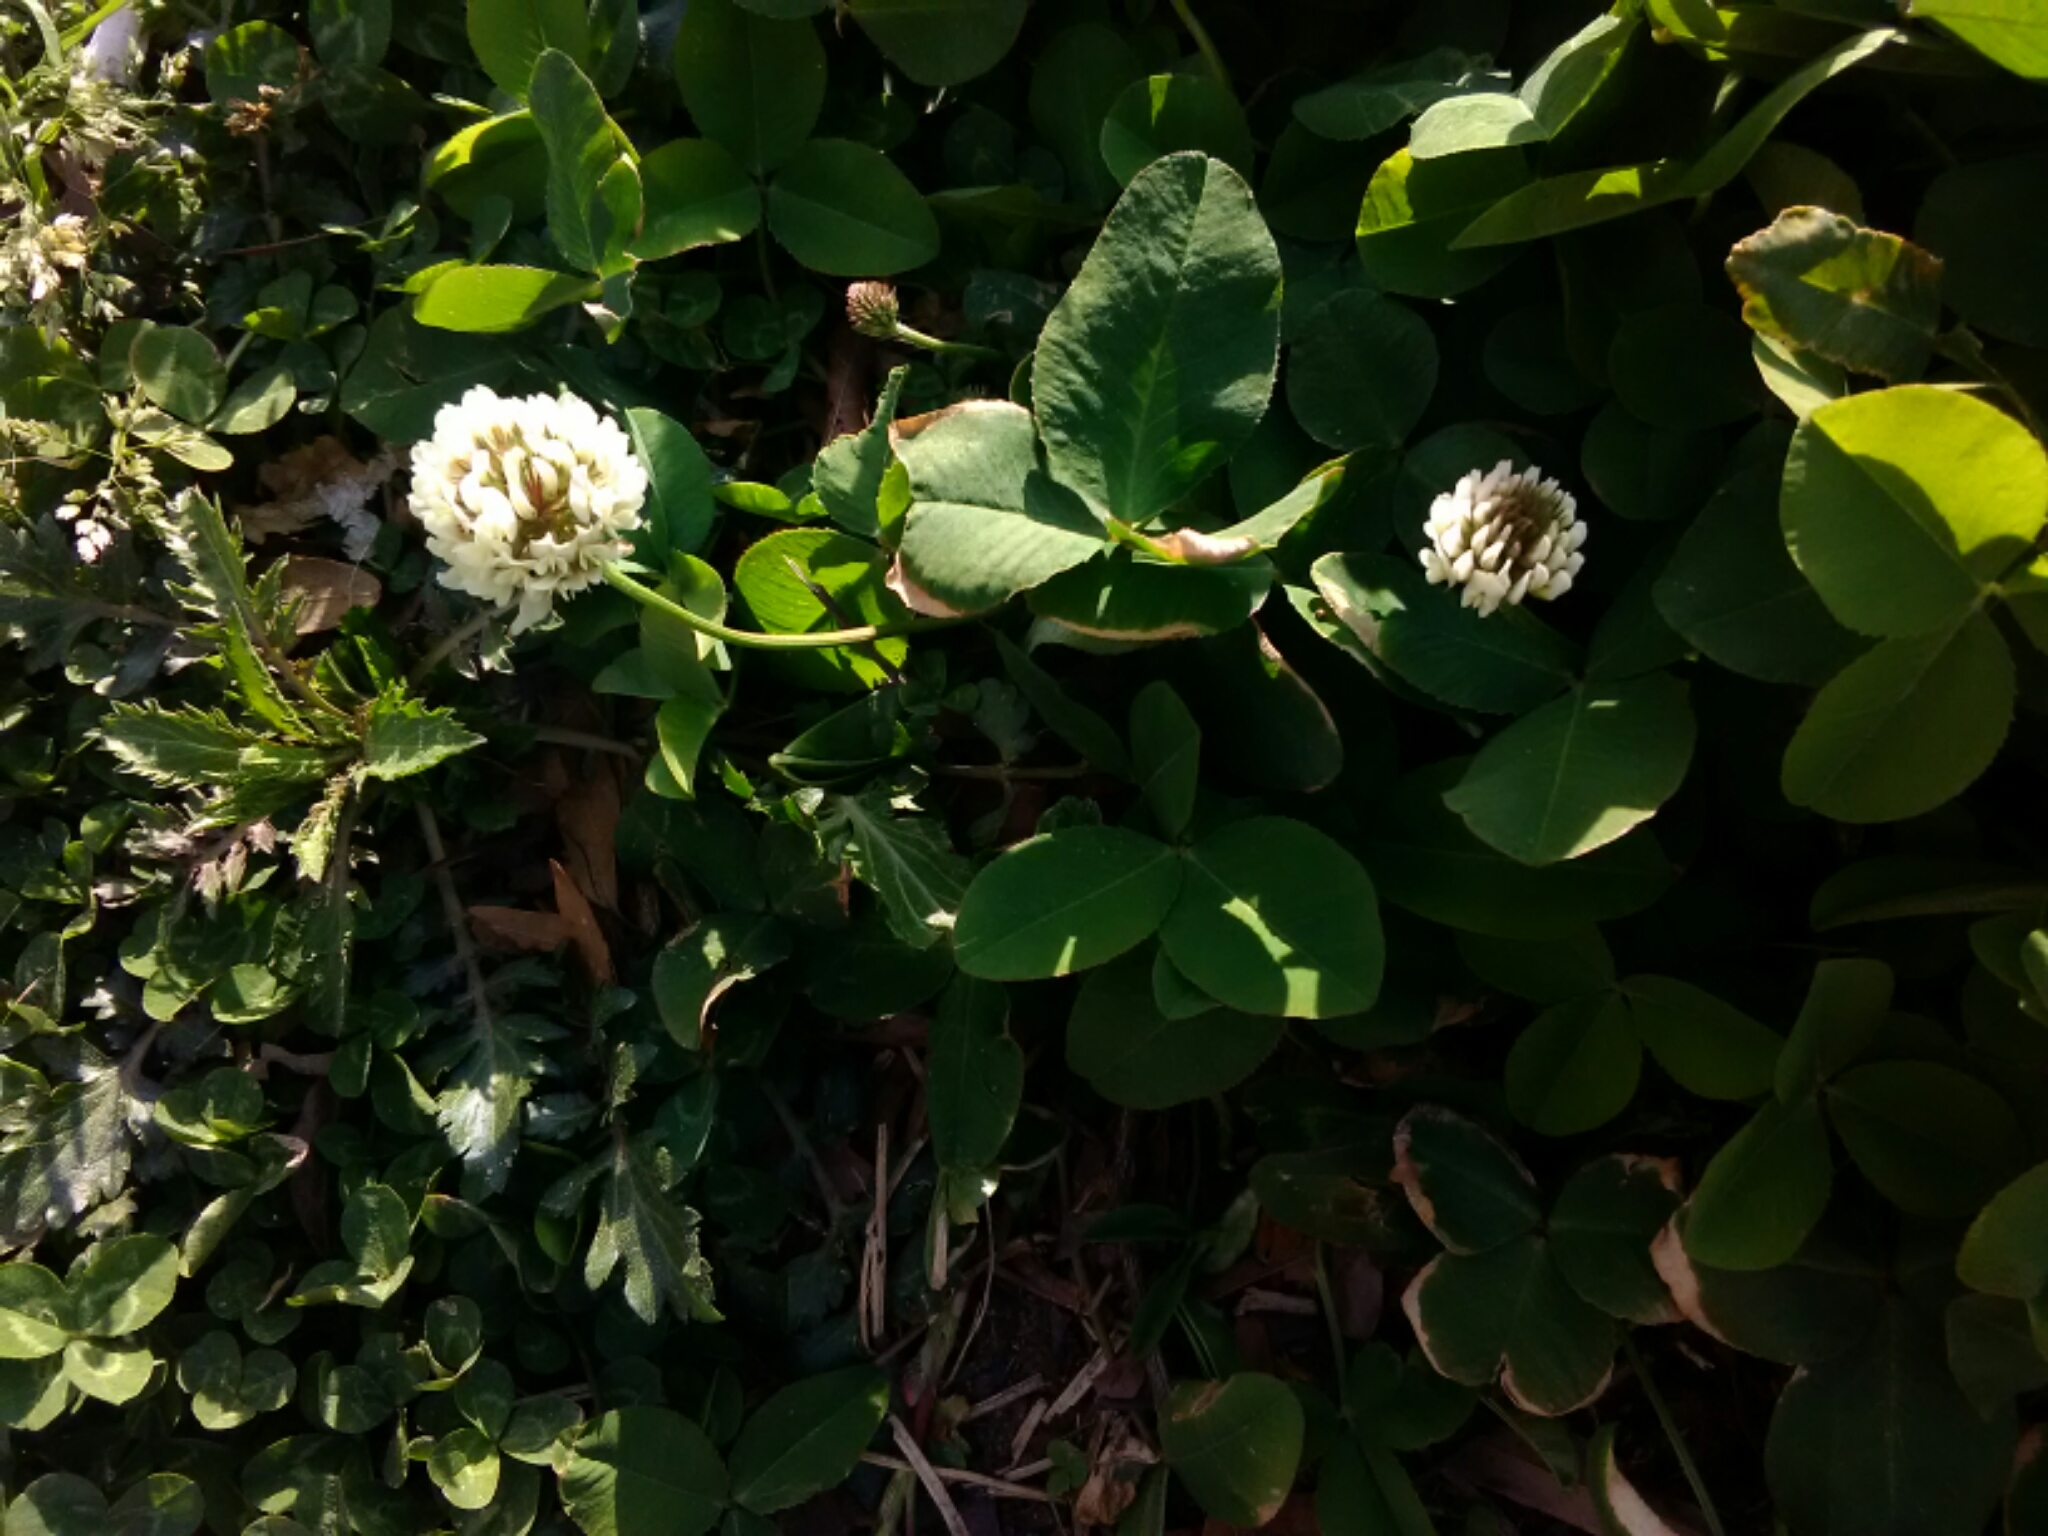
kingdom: Plantae
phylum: Tracheophyta
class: Magnoliopsida
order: Fabales
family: Fabaceae
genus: Trifolium
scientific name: Trifolium repens
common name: White clover
